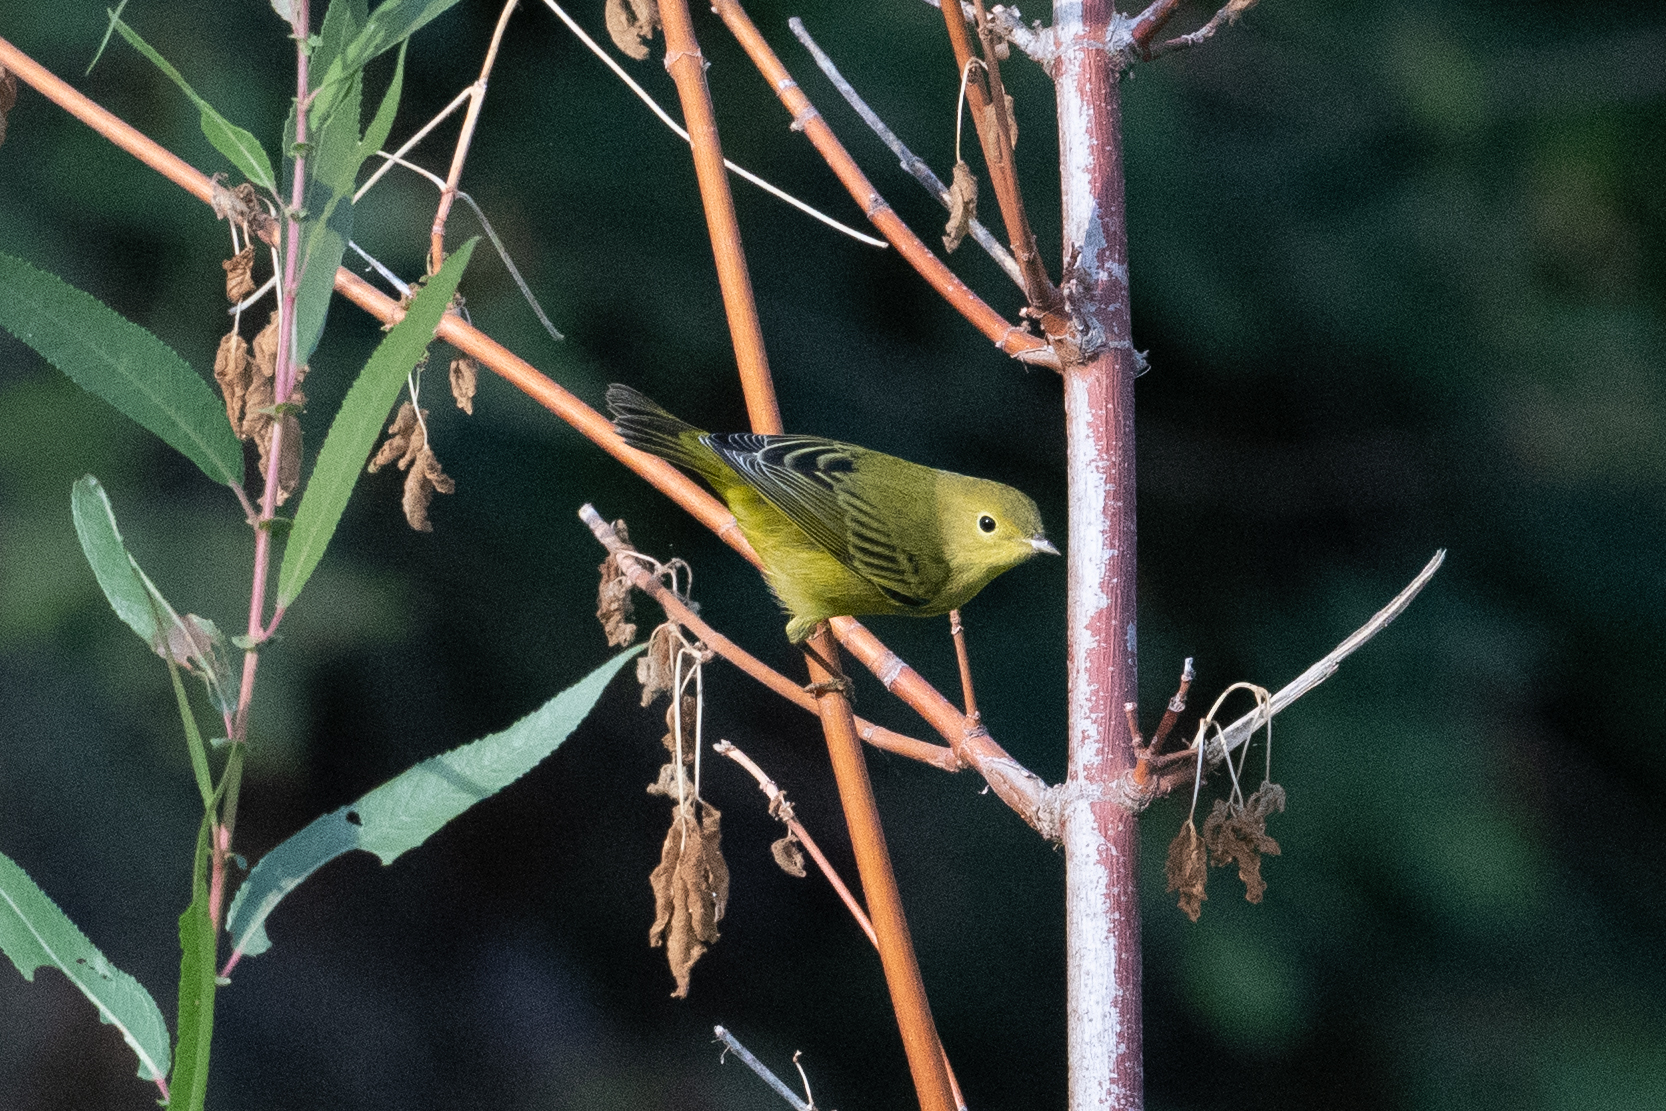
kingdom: Animalia
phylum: Chordata
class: Aves
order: Passeriformes
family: Parulidae
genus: Setophaga
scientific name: Setophaga petechia
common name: Yellow warbler
